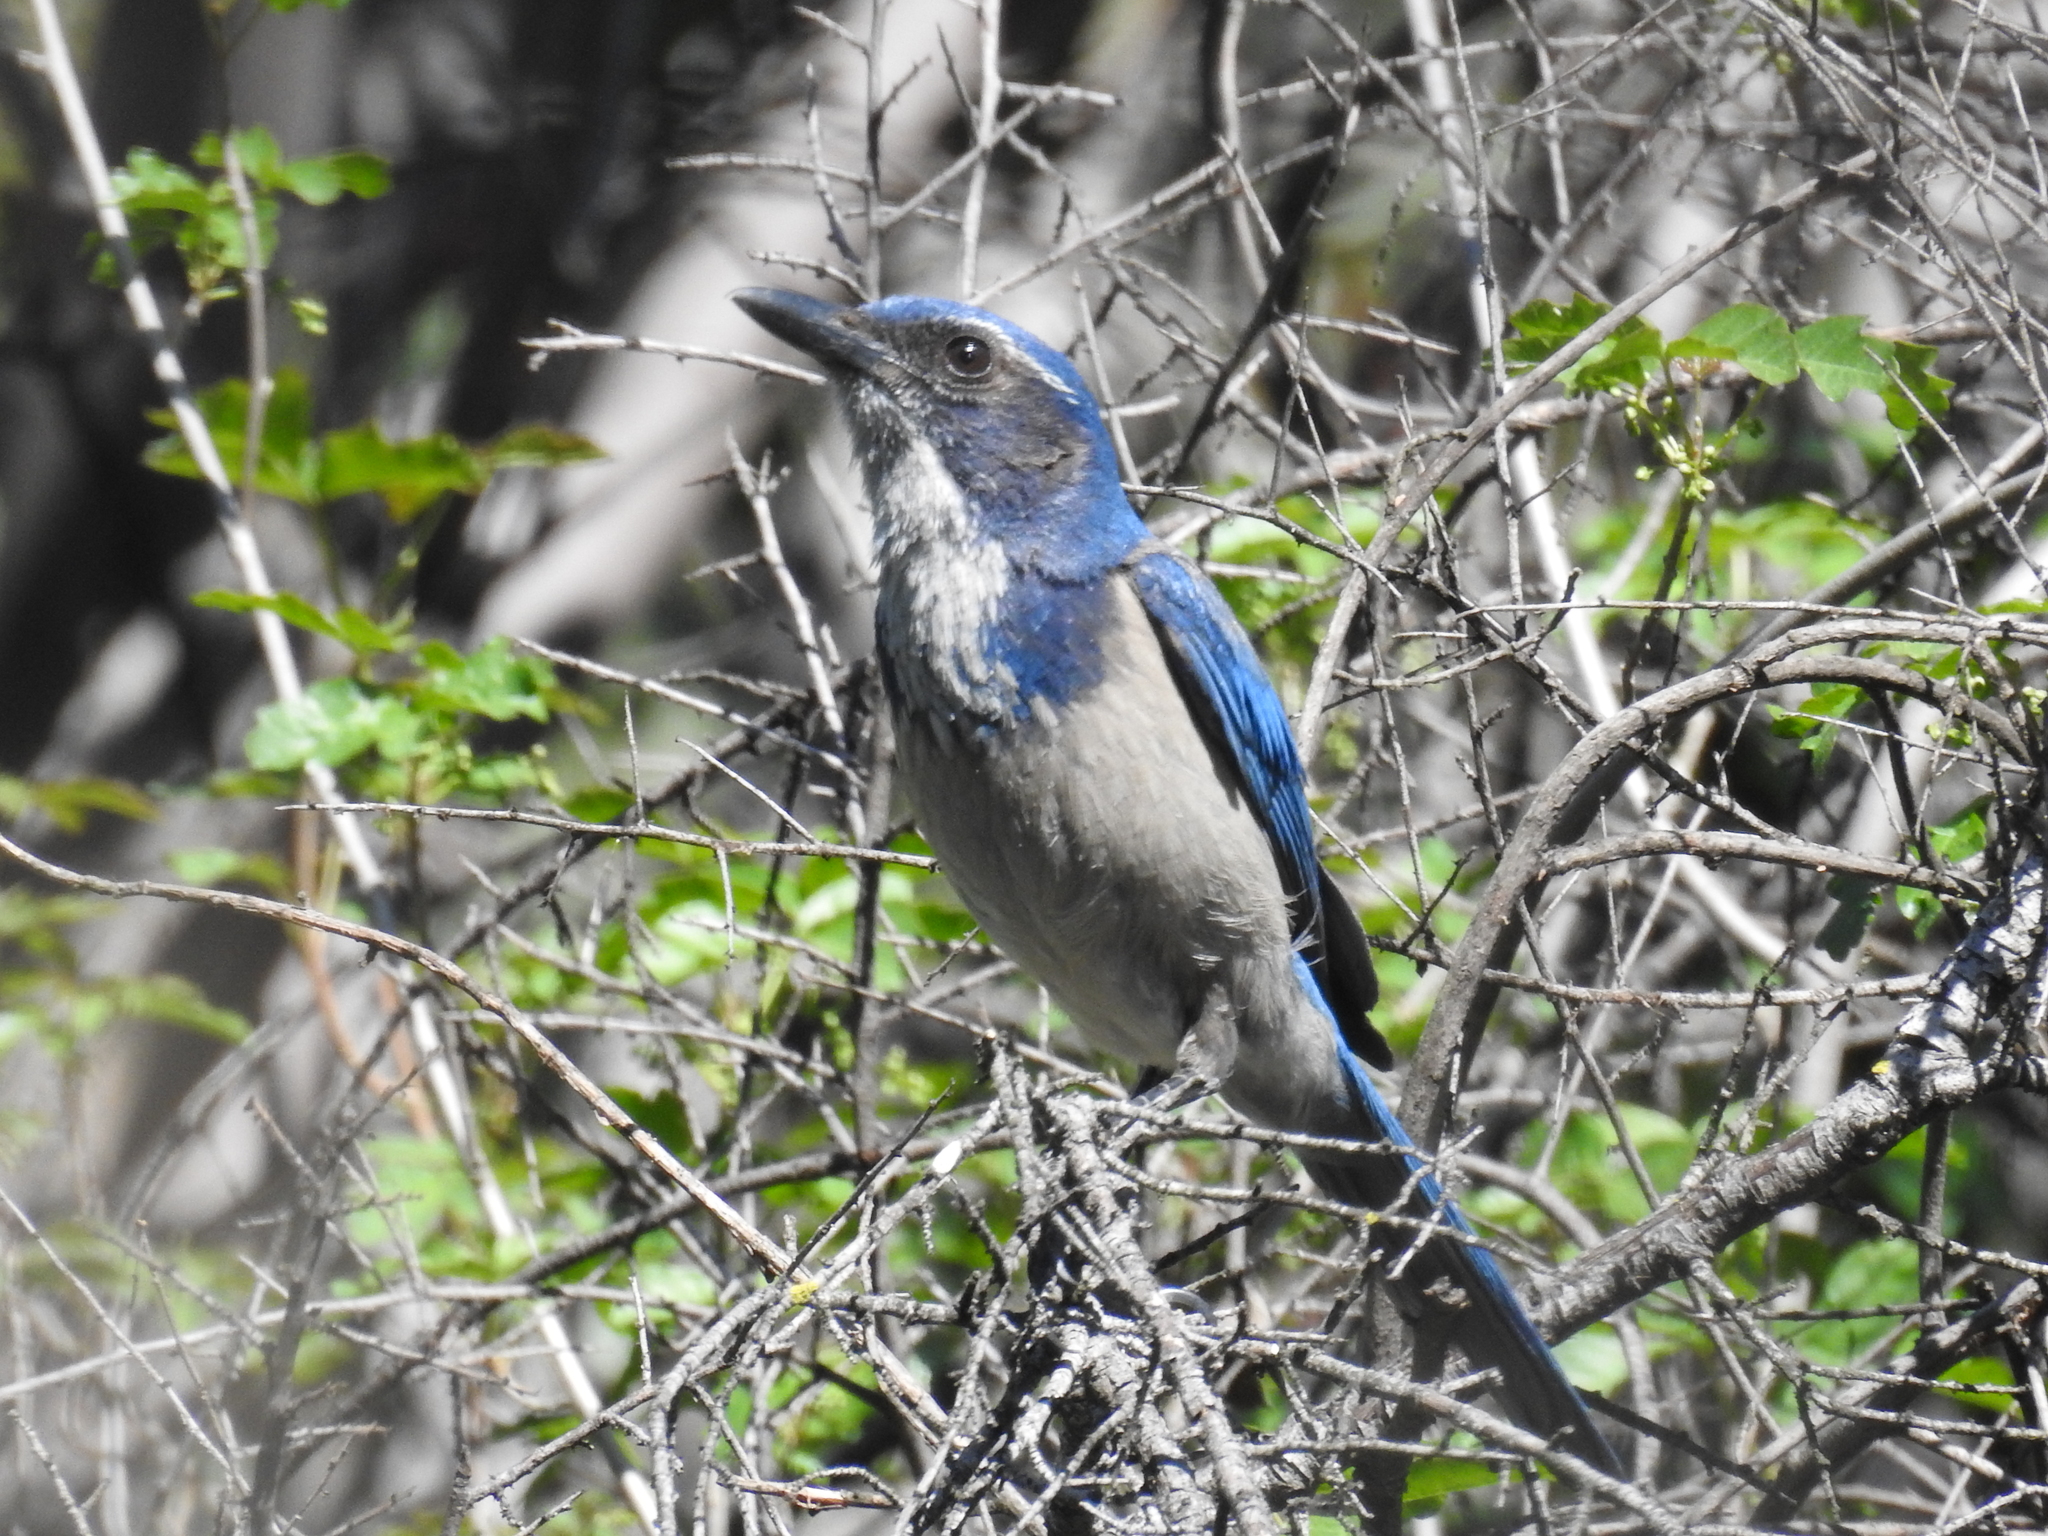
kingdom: Animalia
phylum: Chordata
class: Aves
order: Passeriformes
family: Corvidae
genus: Aphelocoma
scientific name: Aphelocoma californica
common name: California scrub-jay
